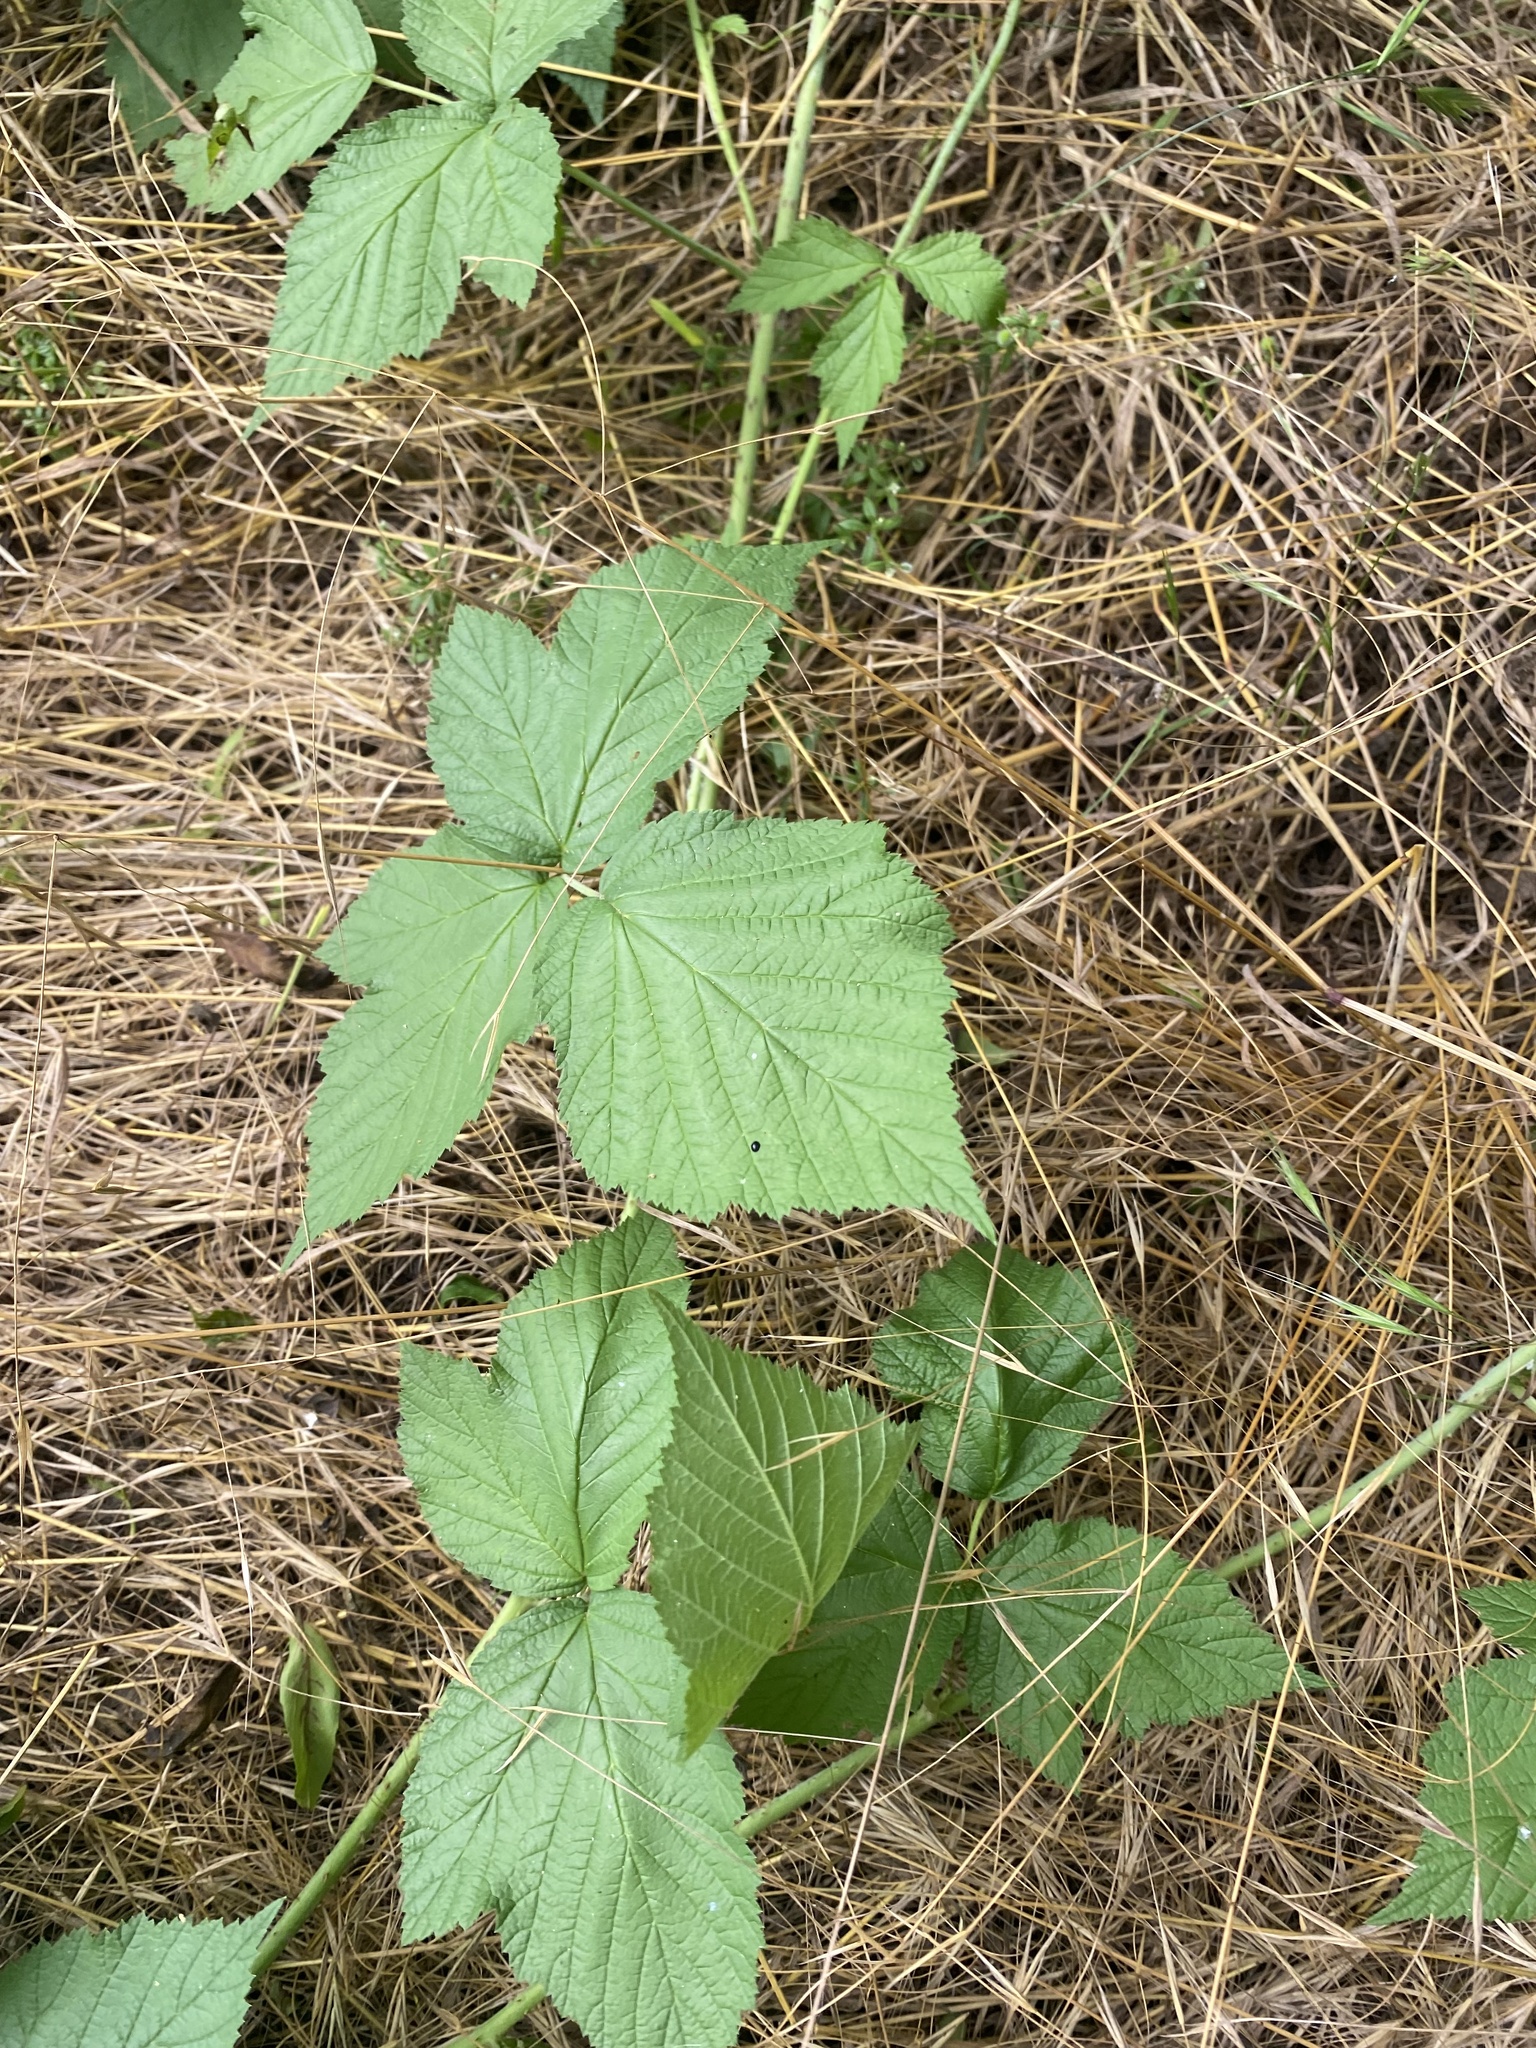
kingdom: Plantae
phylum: Tracheophyta
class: Magnoliopsida
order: Rosales
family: Rosaceae
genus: Rubus
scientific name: Rubus caesius
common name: Dewberry
